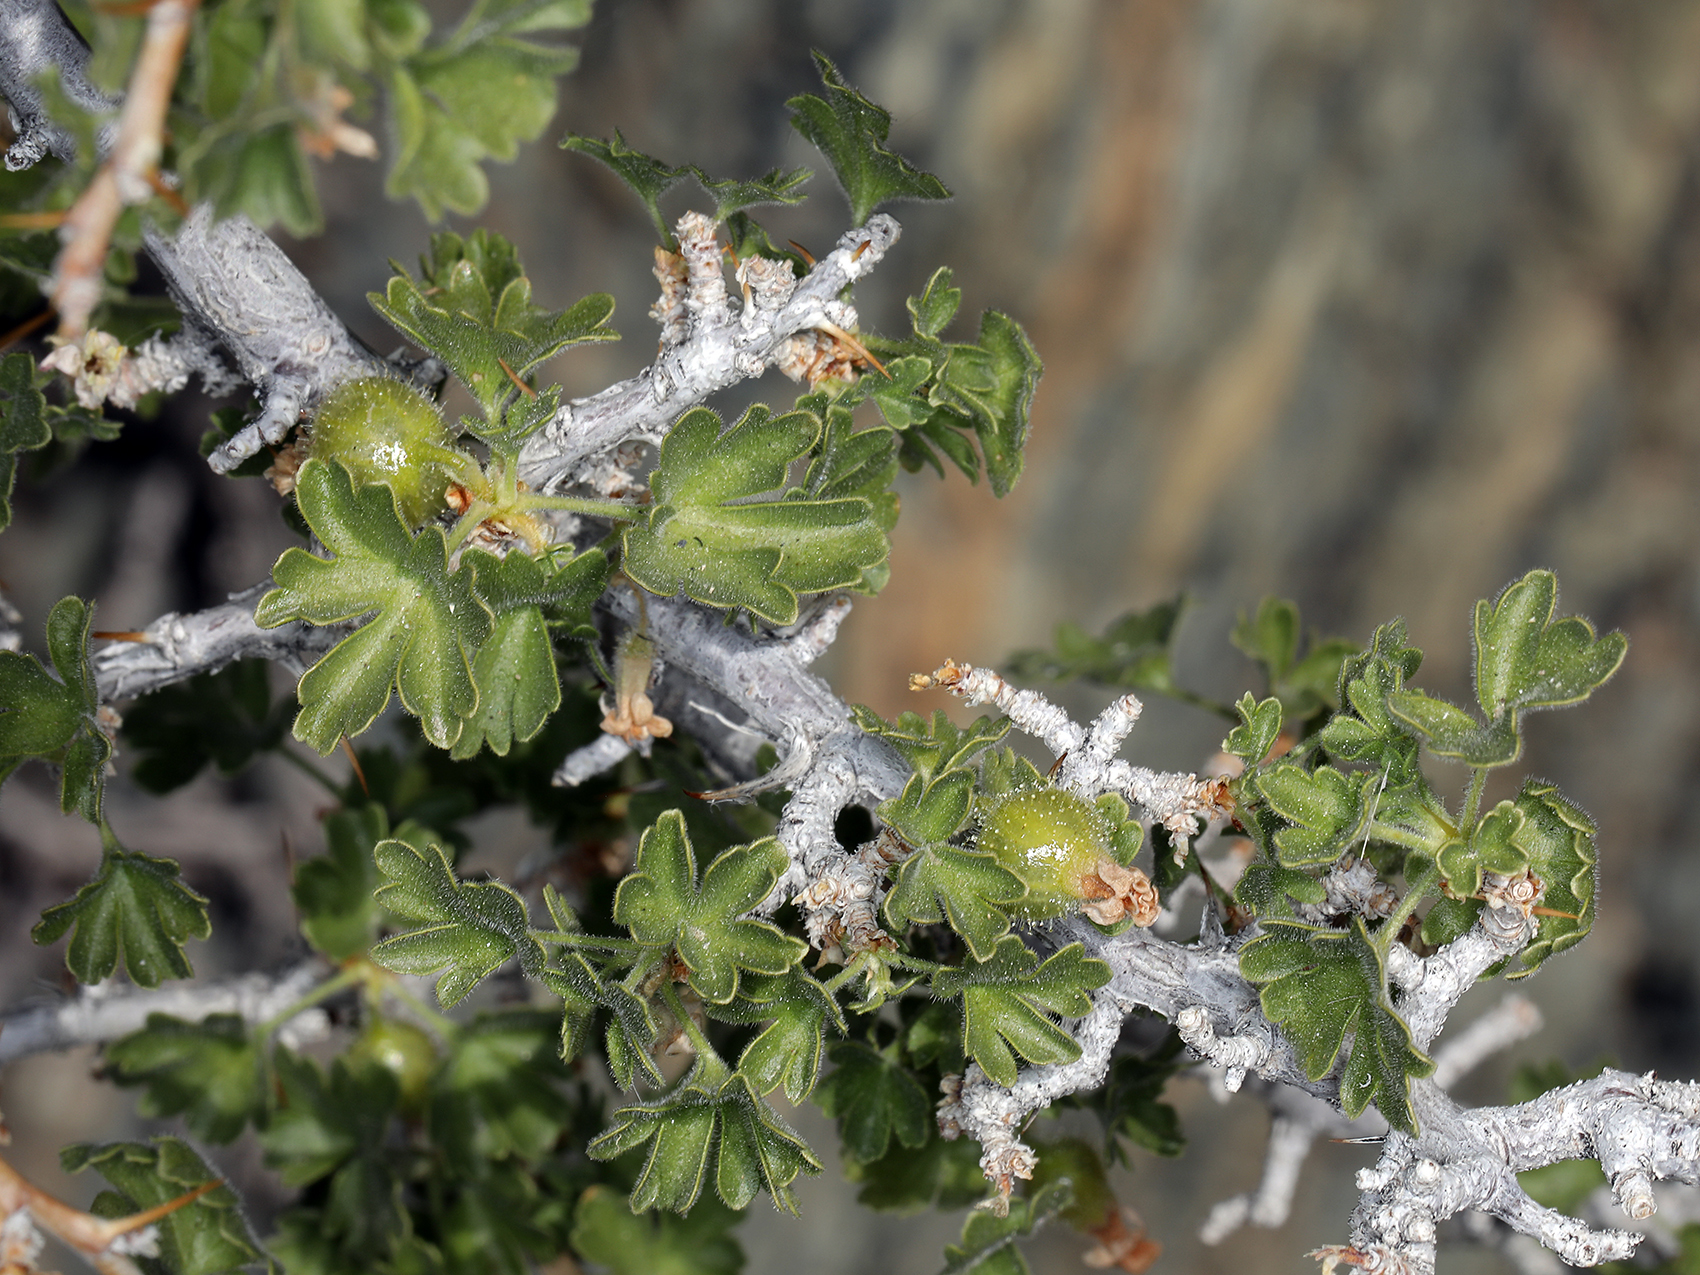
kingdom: Plantae
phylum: Tracheophyta
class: Magnoliopsida
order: Saxifragales
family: Grossulariaceae
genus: Ribes
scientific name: Ribes velutinum
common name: Desert gooseberry
